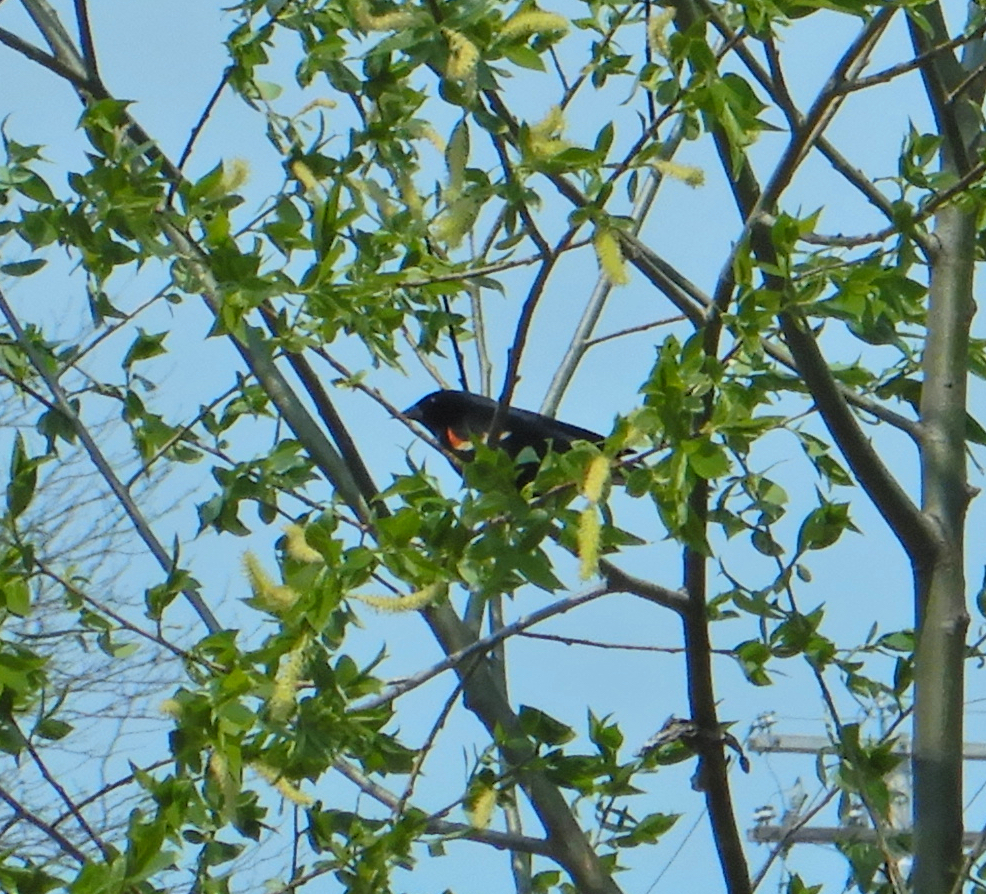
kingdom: Animalia
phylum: Chordata
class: Aves
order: Passeriformes
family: Icteridae
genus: Agelaius
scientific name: Agelaius phoeniceus
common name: Red-winged blackbird
